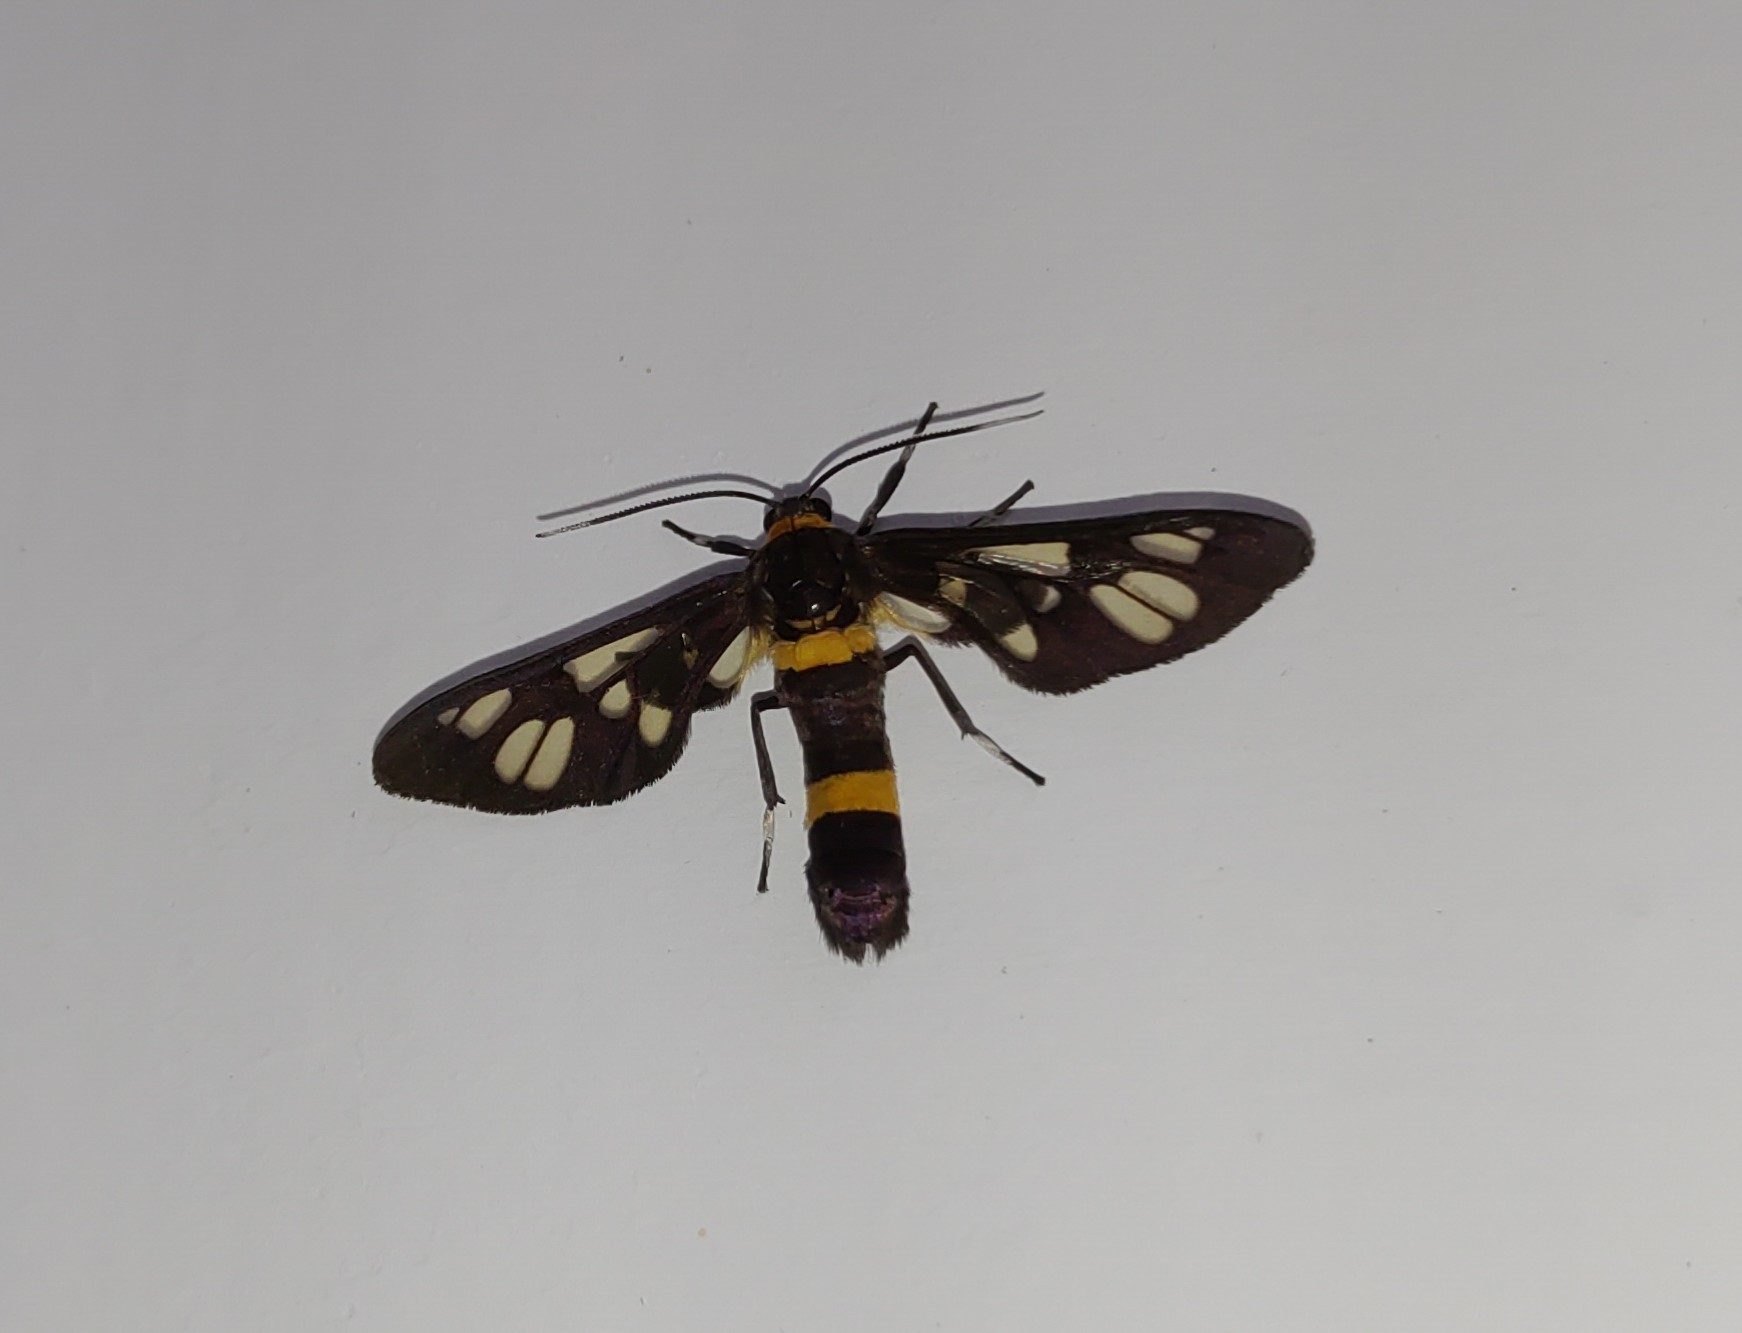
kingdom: Animalia
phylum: Arthropoda
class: Insecta
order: Lepidoptera
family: Erebidae
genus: Syntomoides
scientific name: Syntomoides imaon
